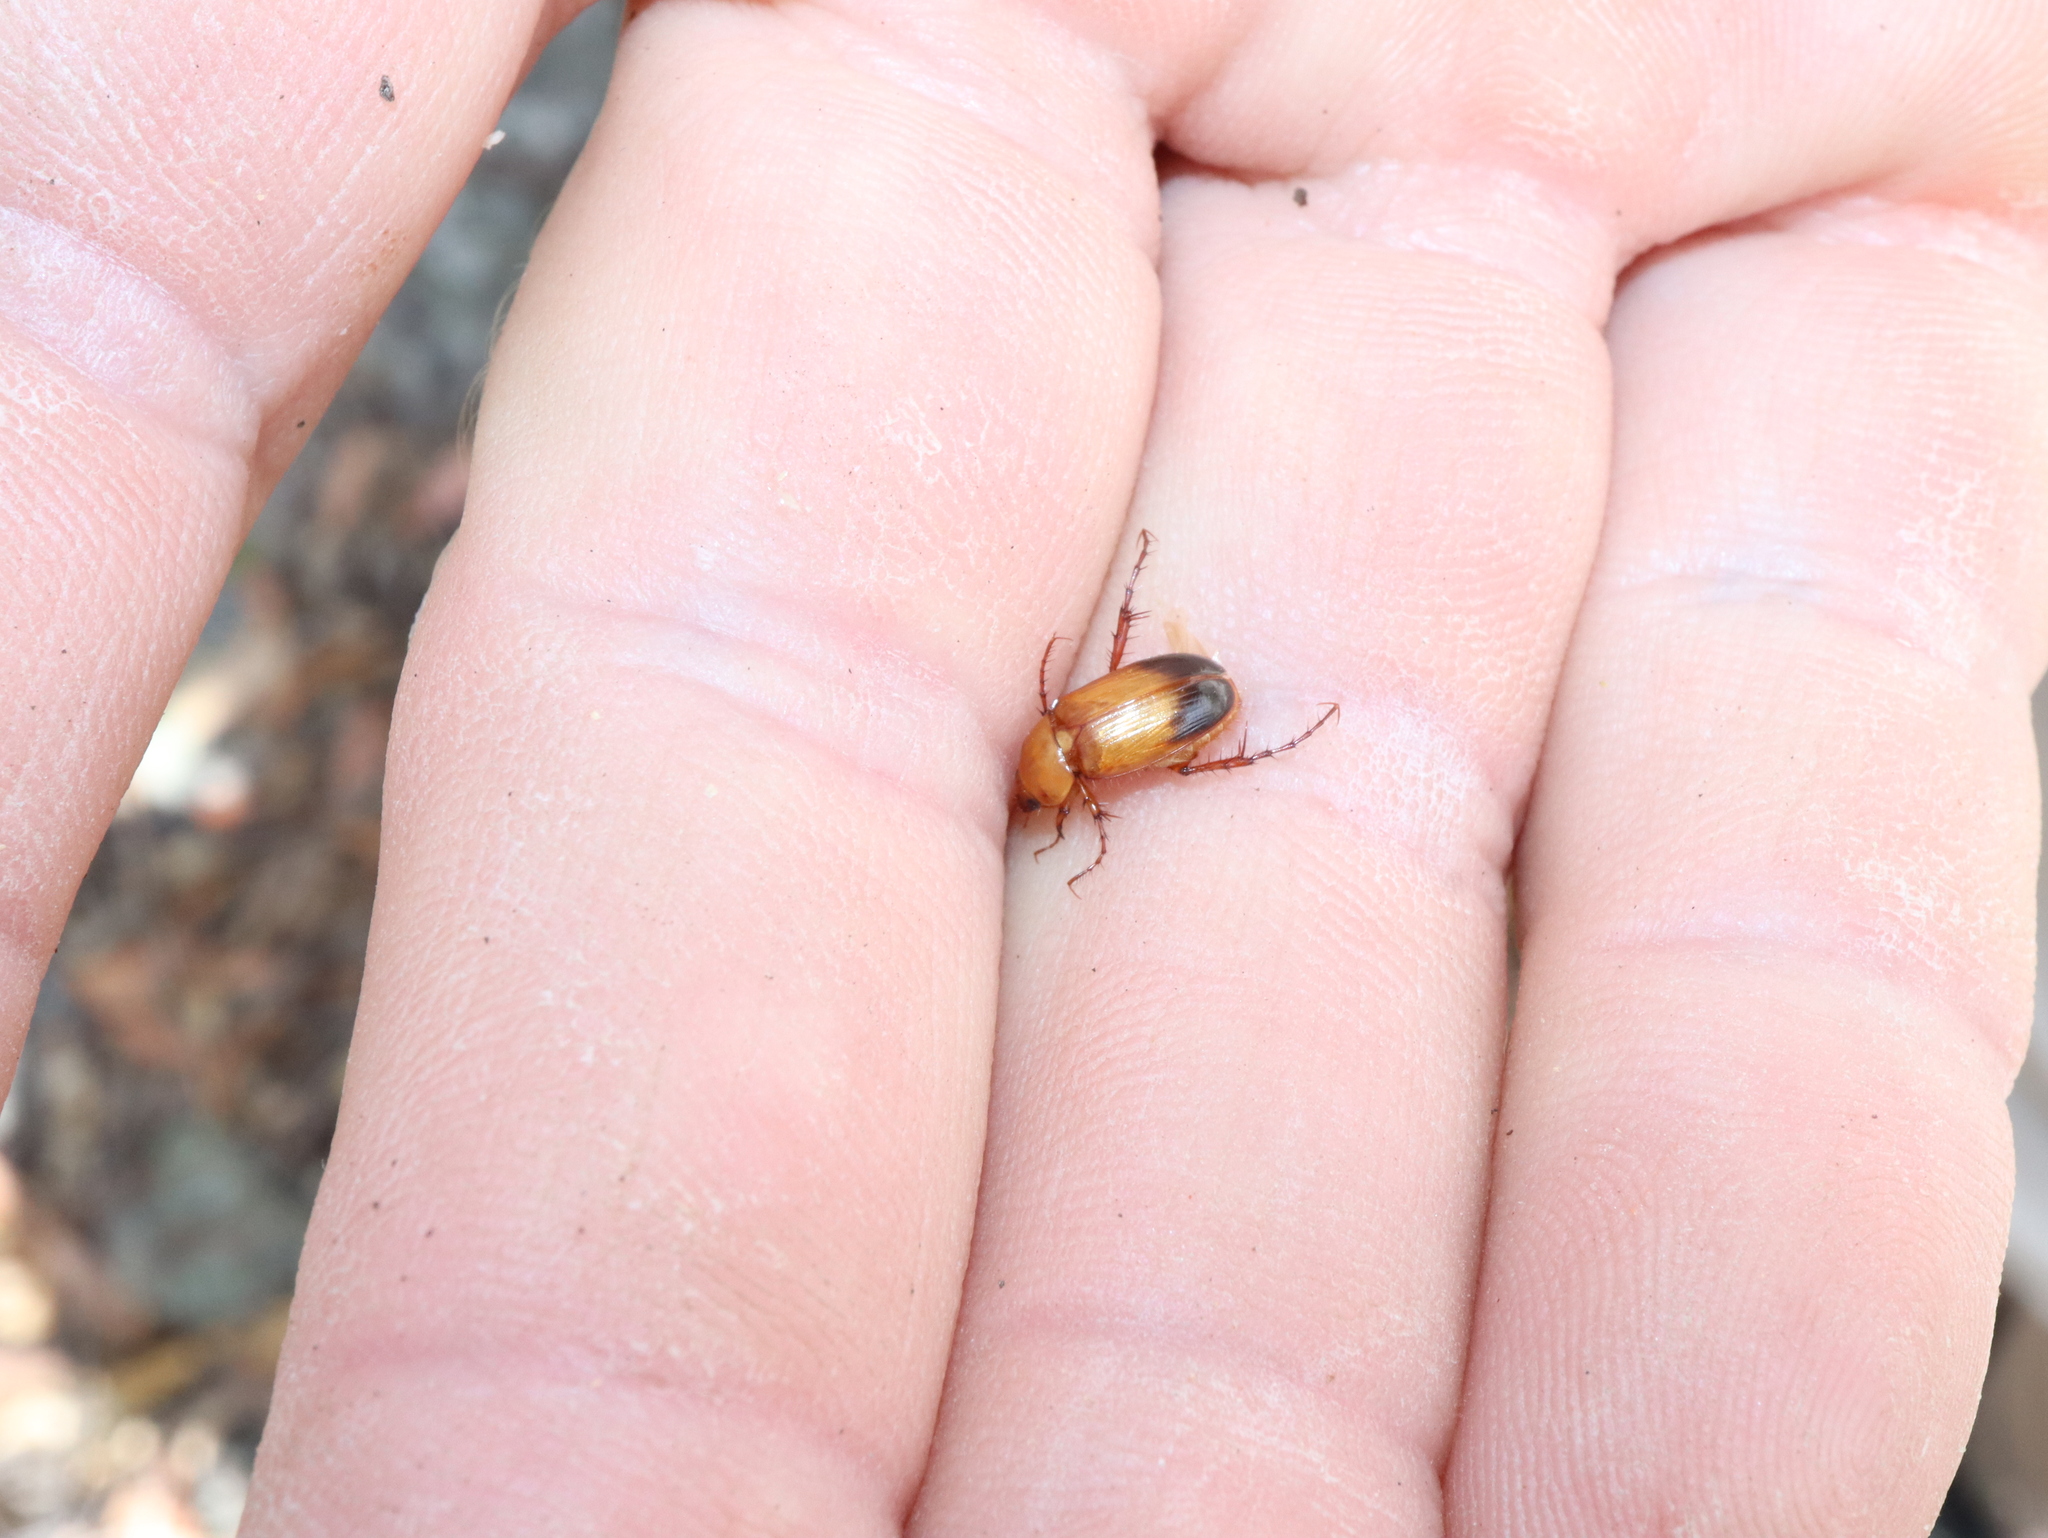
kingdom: Animalia
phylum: Arthropoda
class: Insecta
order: Coleoptera
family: Scarabaeidae
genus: Phyllotocus
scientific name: Phyllotocus macleayi
